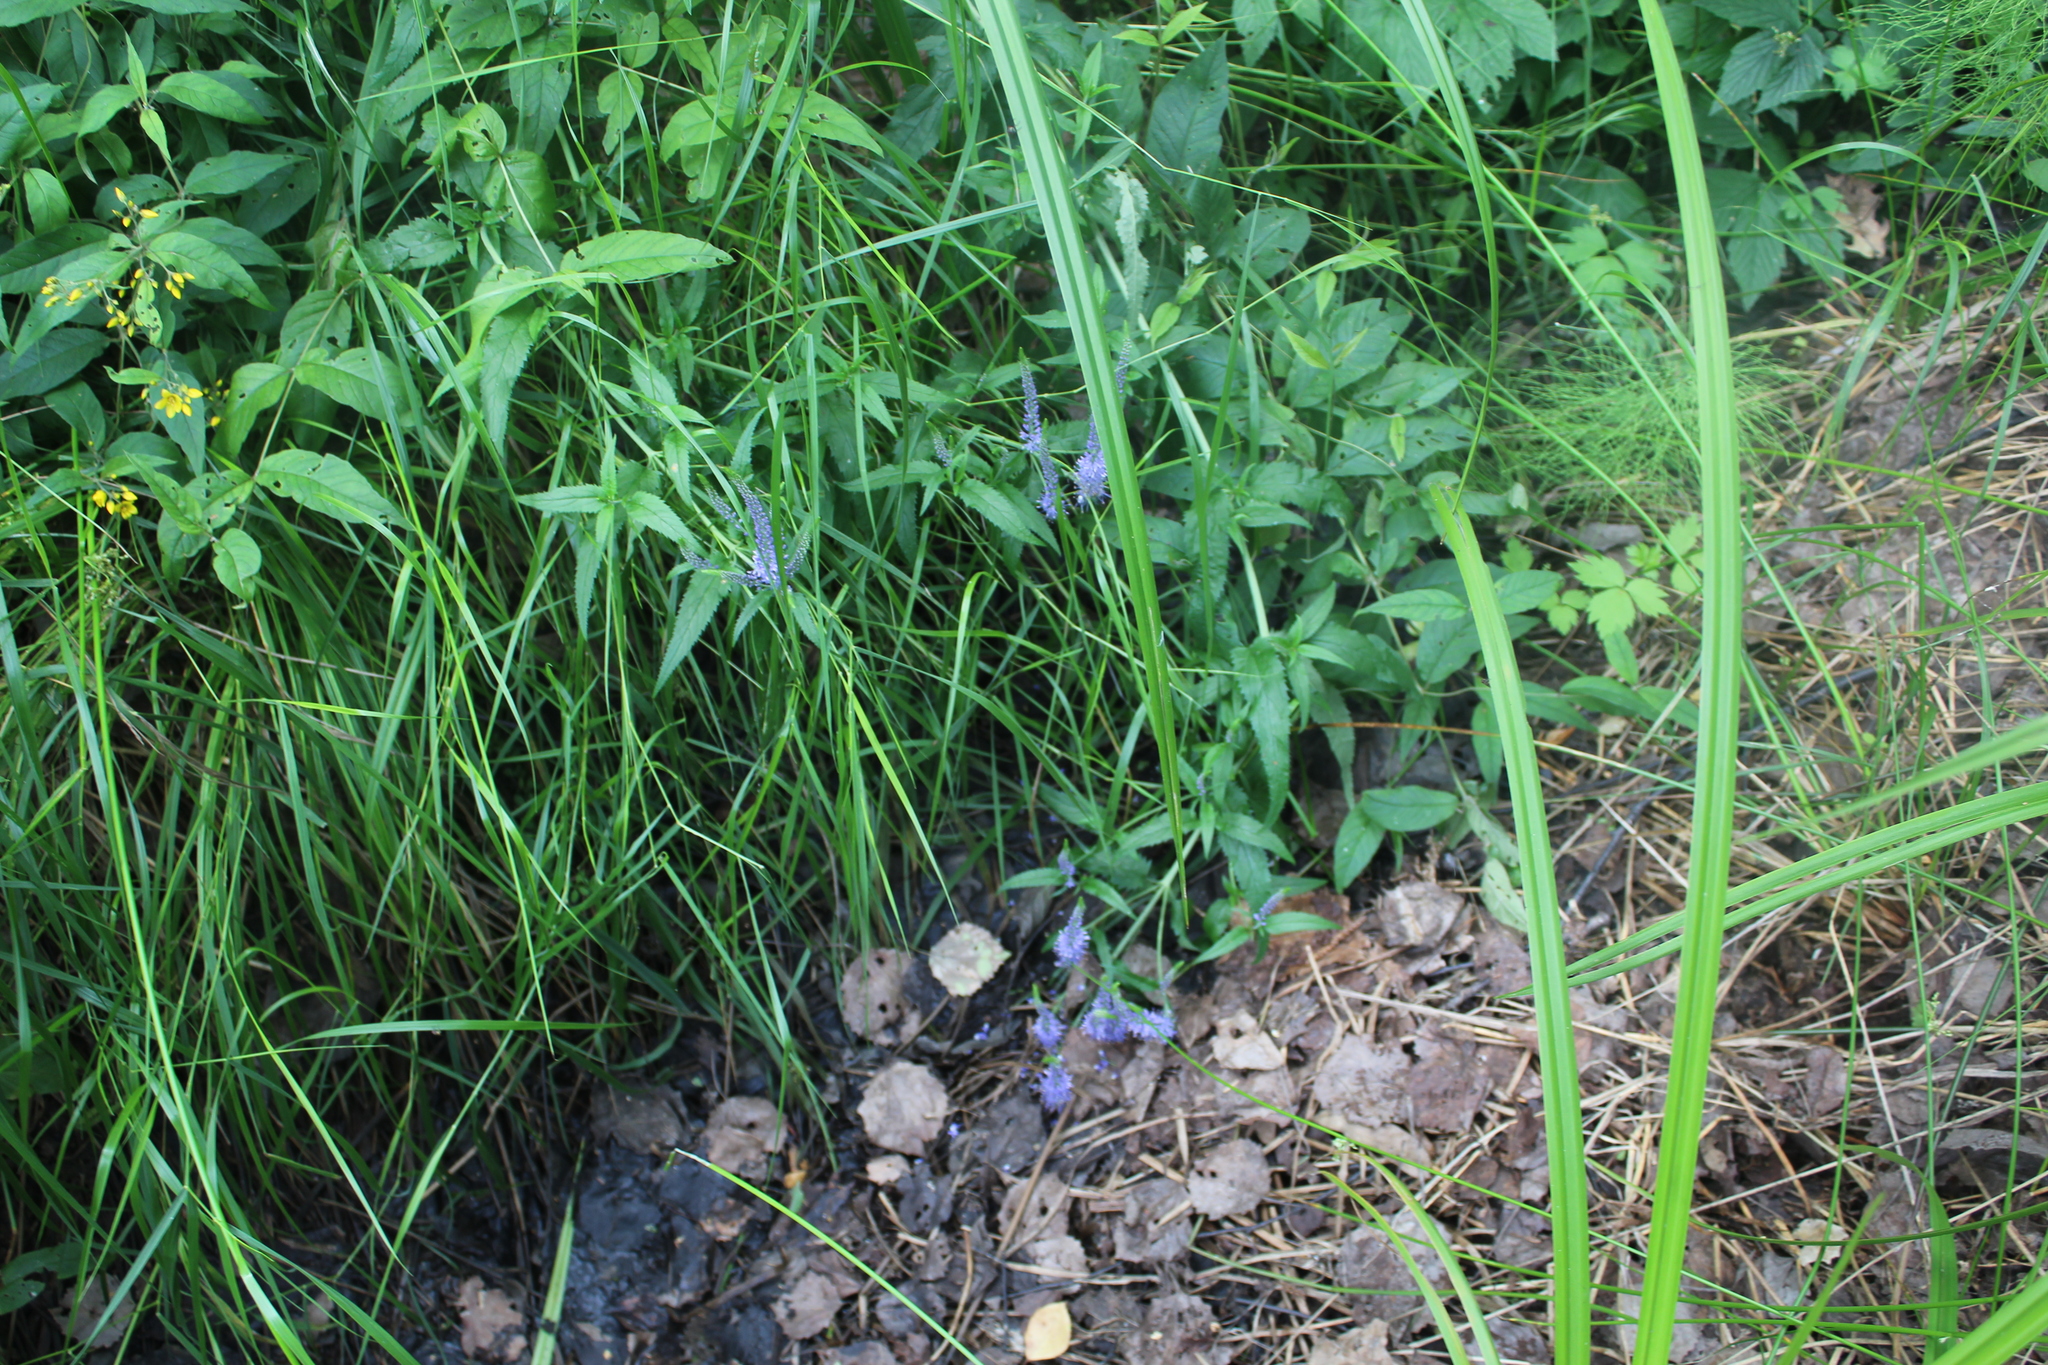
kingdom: Plantae
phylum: Tracheophyta
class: Magnoliopsida
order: Lamiales
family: Plantaginaceae
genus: Veronica
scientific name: Veronica longifolia
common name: Garden speedwell
